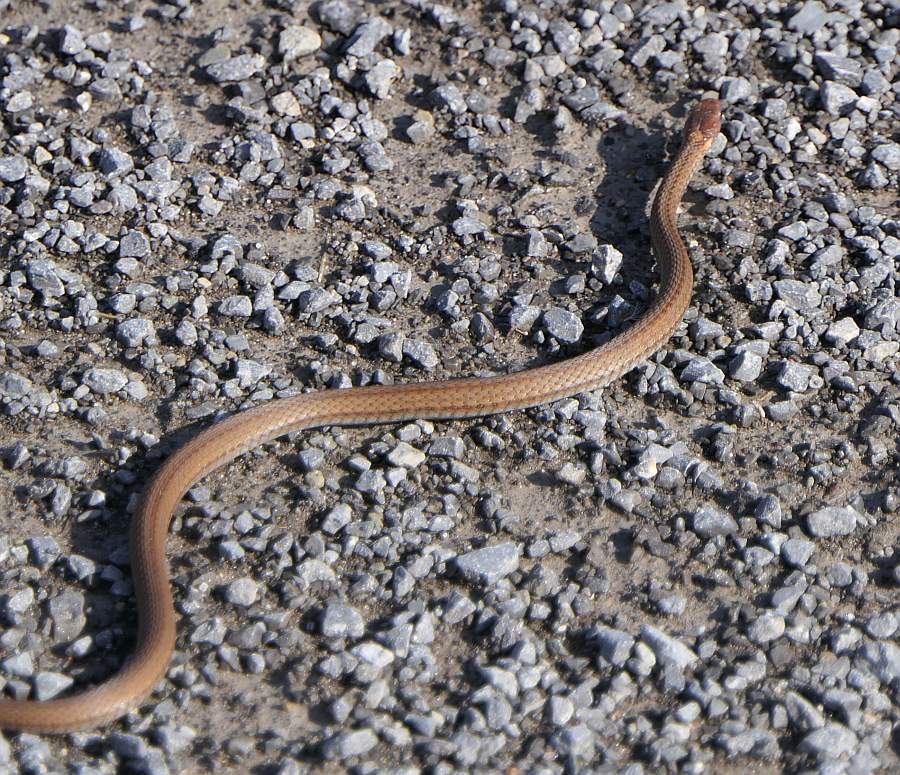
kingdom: Animalia
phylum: Chordata
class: Squamata
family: Colubridae
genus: Storeria
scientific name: Storeria occipitomaculata
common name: Redbelly snake
